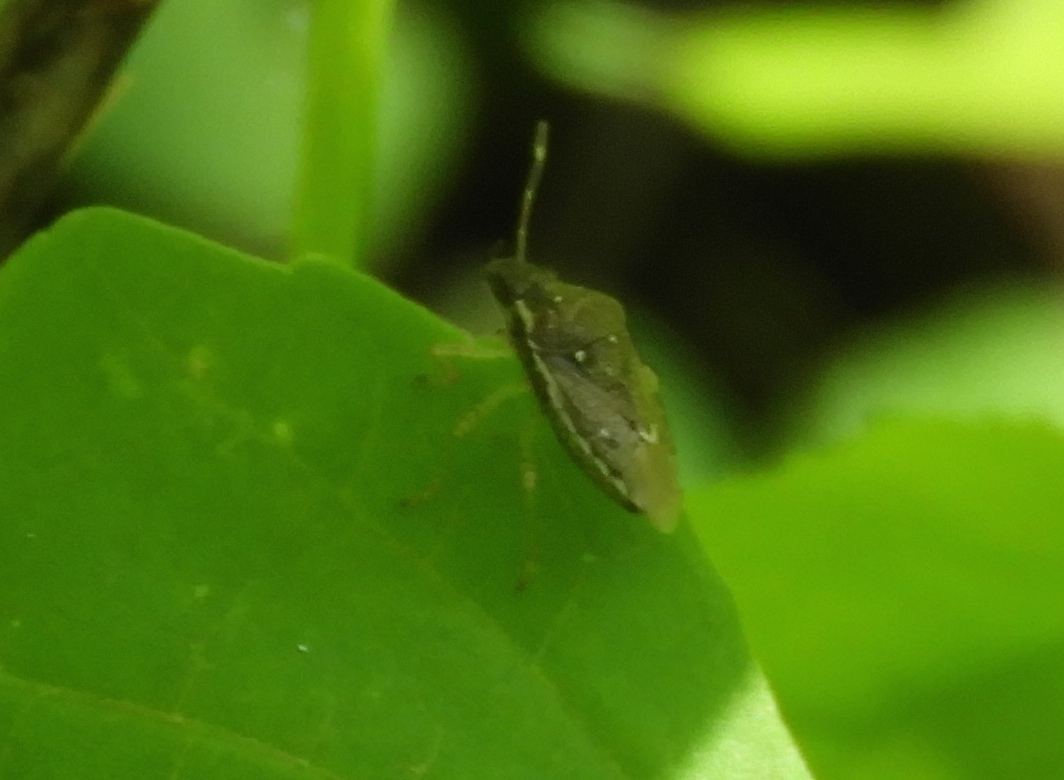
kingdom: Animalia
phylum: Arthropoda
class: Insecta
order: Hemiptera
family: Pentatomidae
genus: Mormidea
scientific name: Mormidea
